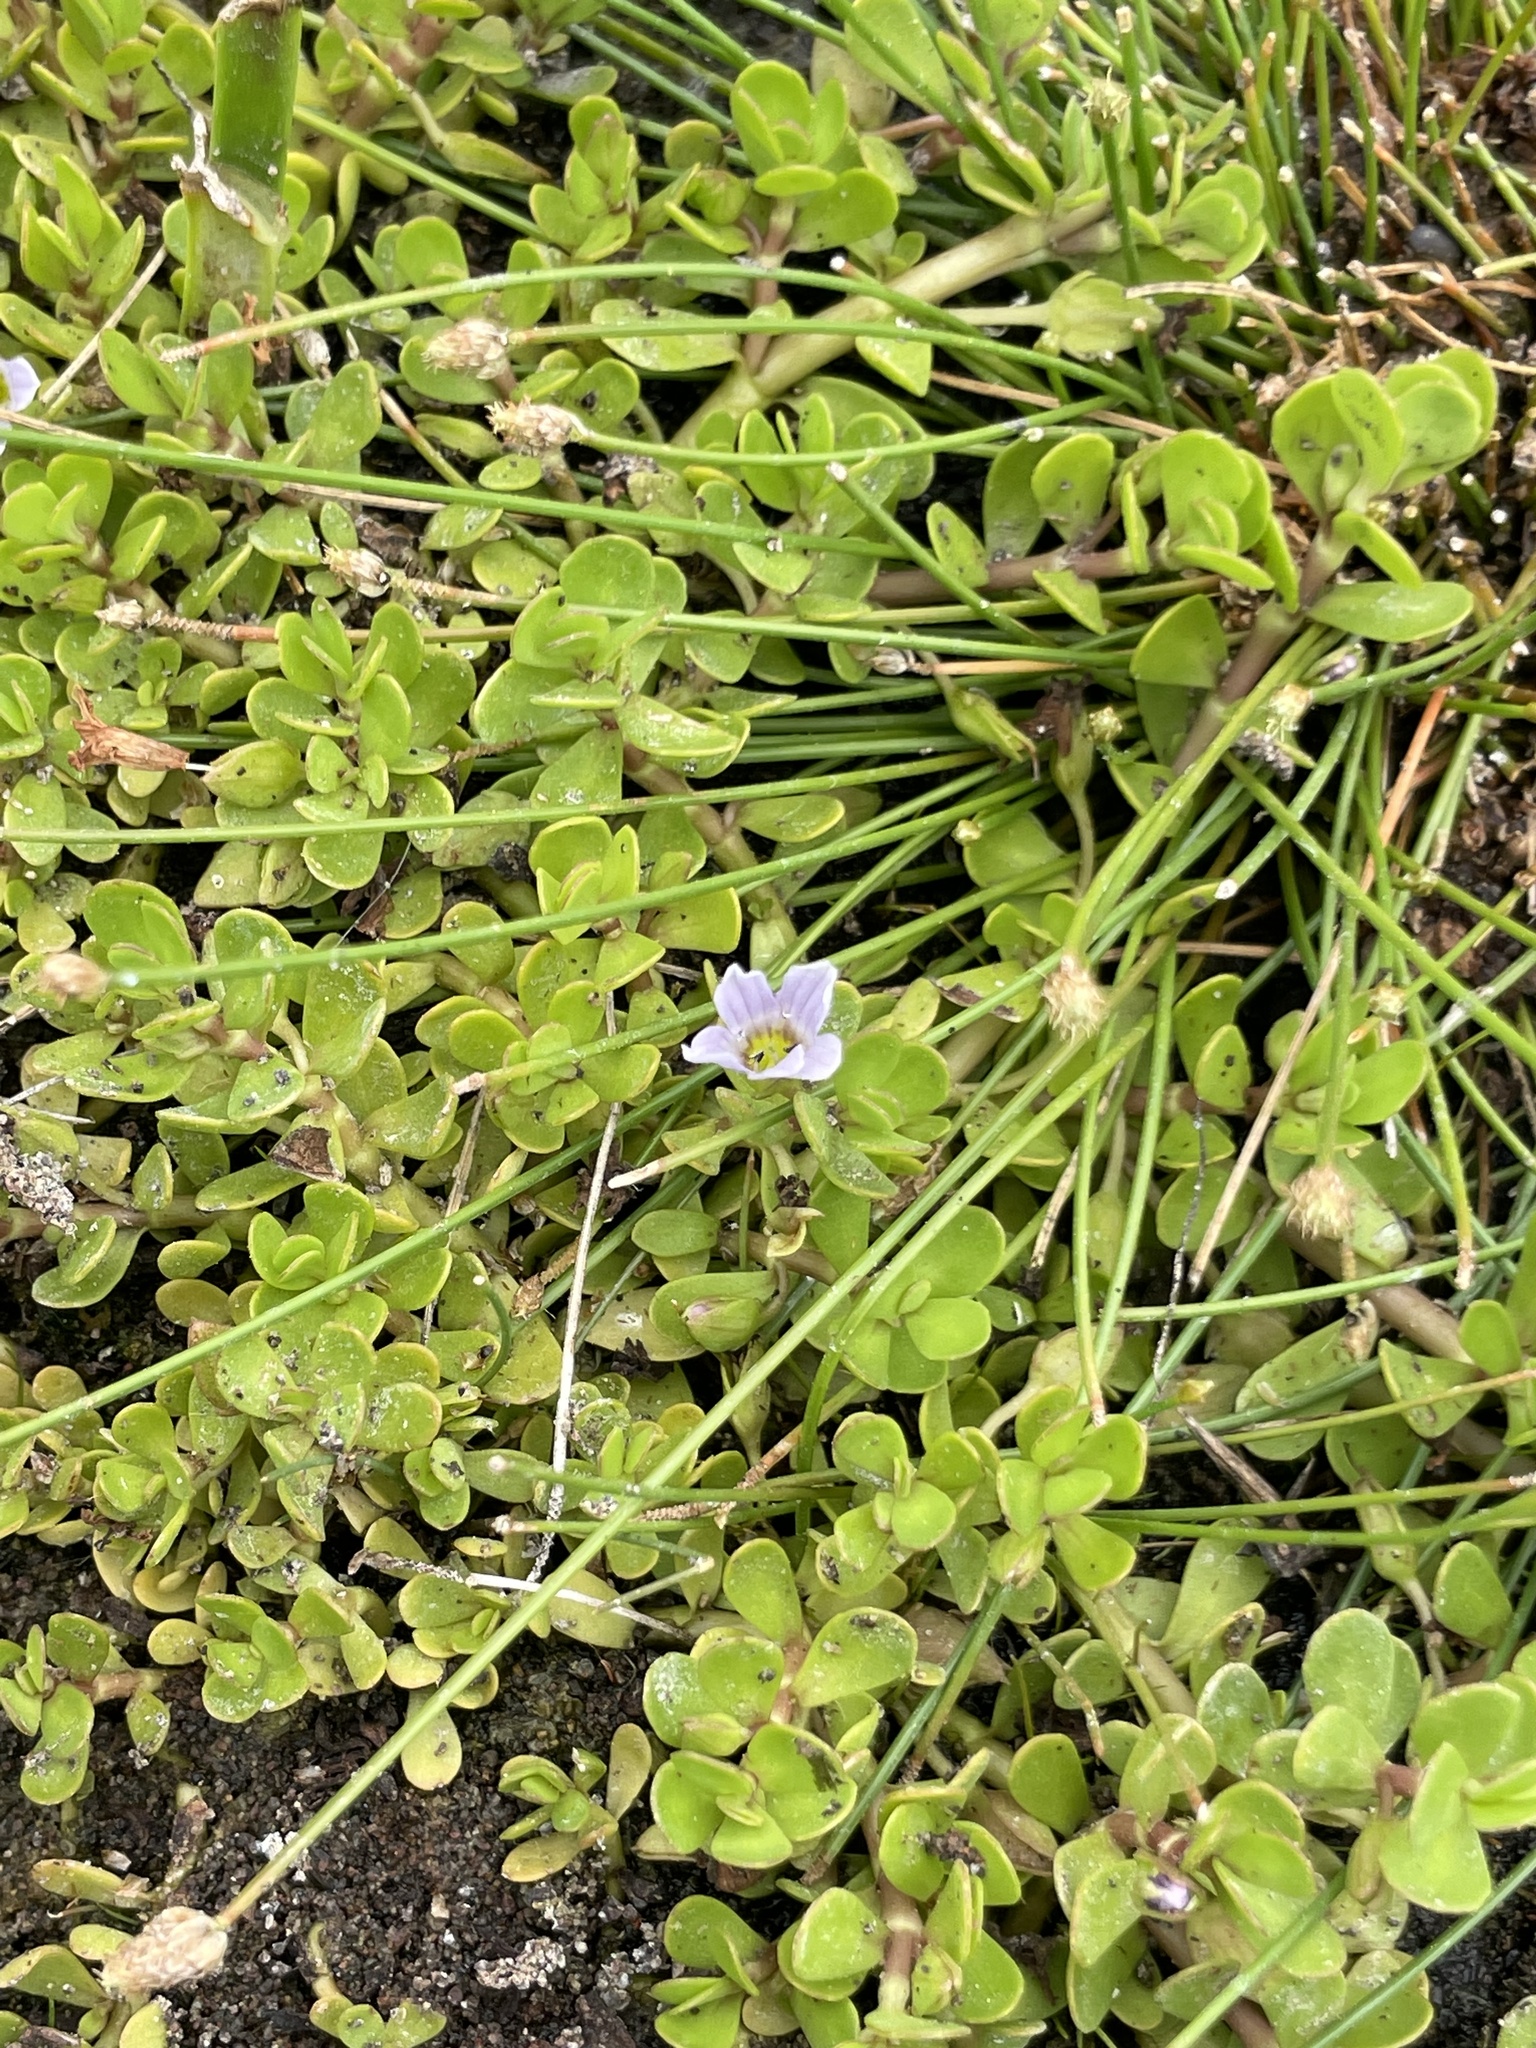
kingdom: Plantae
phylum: Tracheophyta
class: Magnoliopsida
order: Lamiales
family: Plantaginaceae
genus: Bacopa
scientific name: Bacopa monnieri
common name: Indian-pennywort
